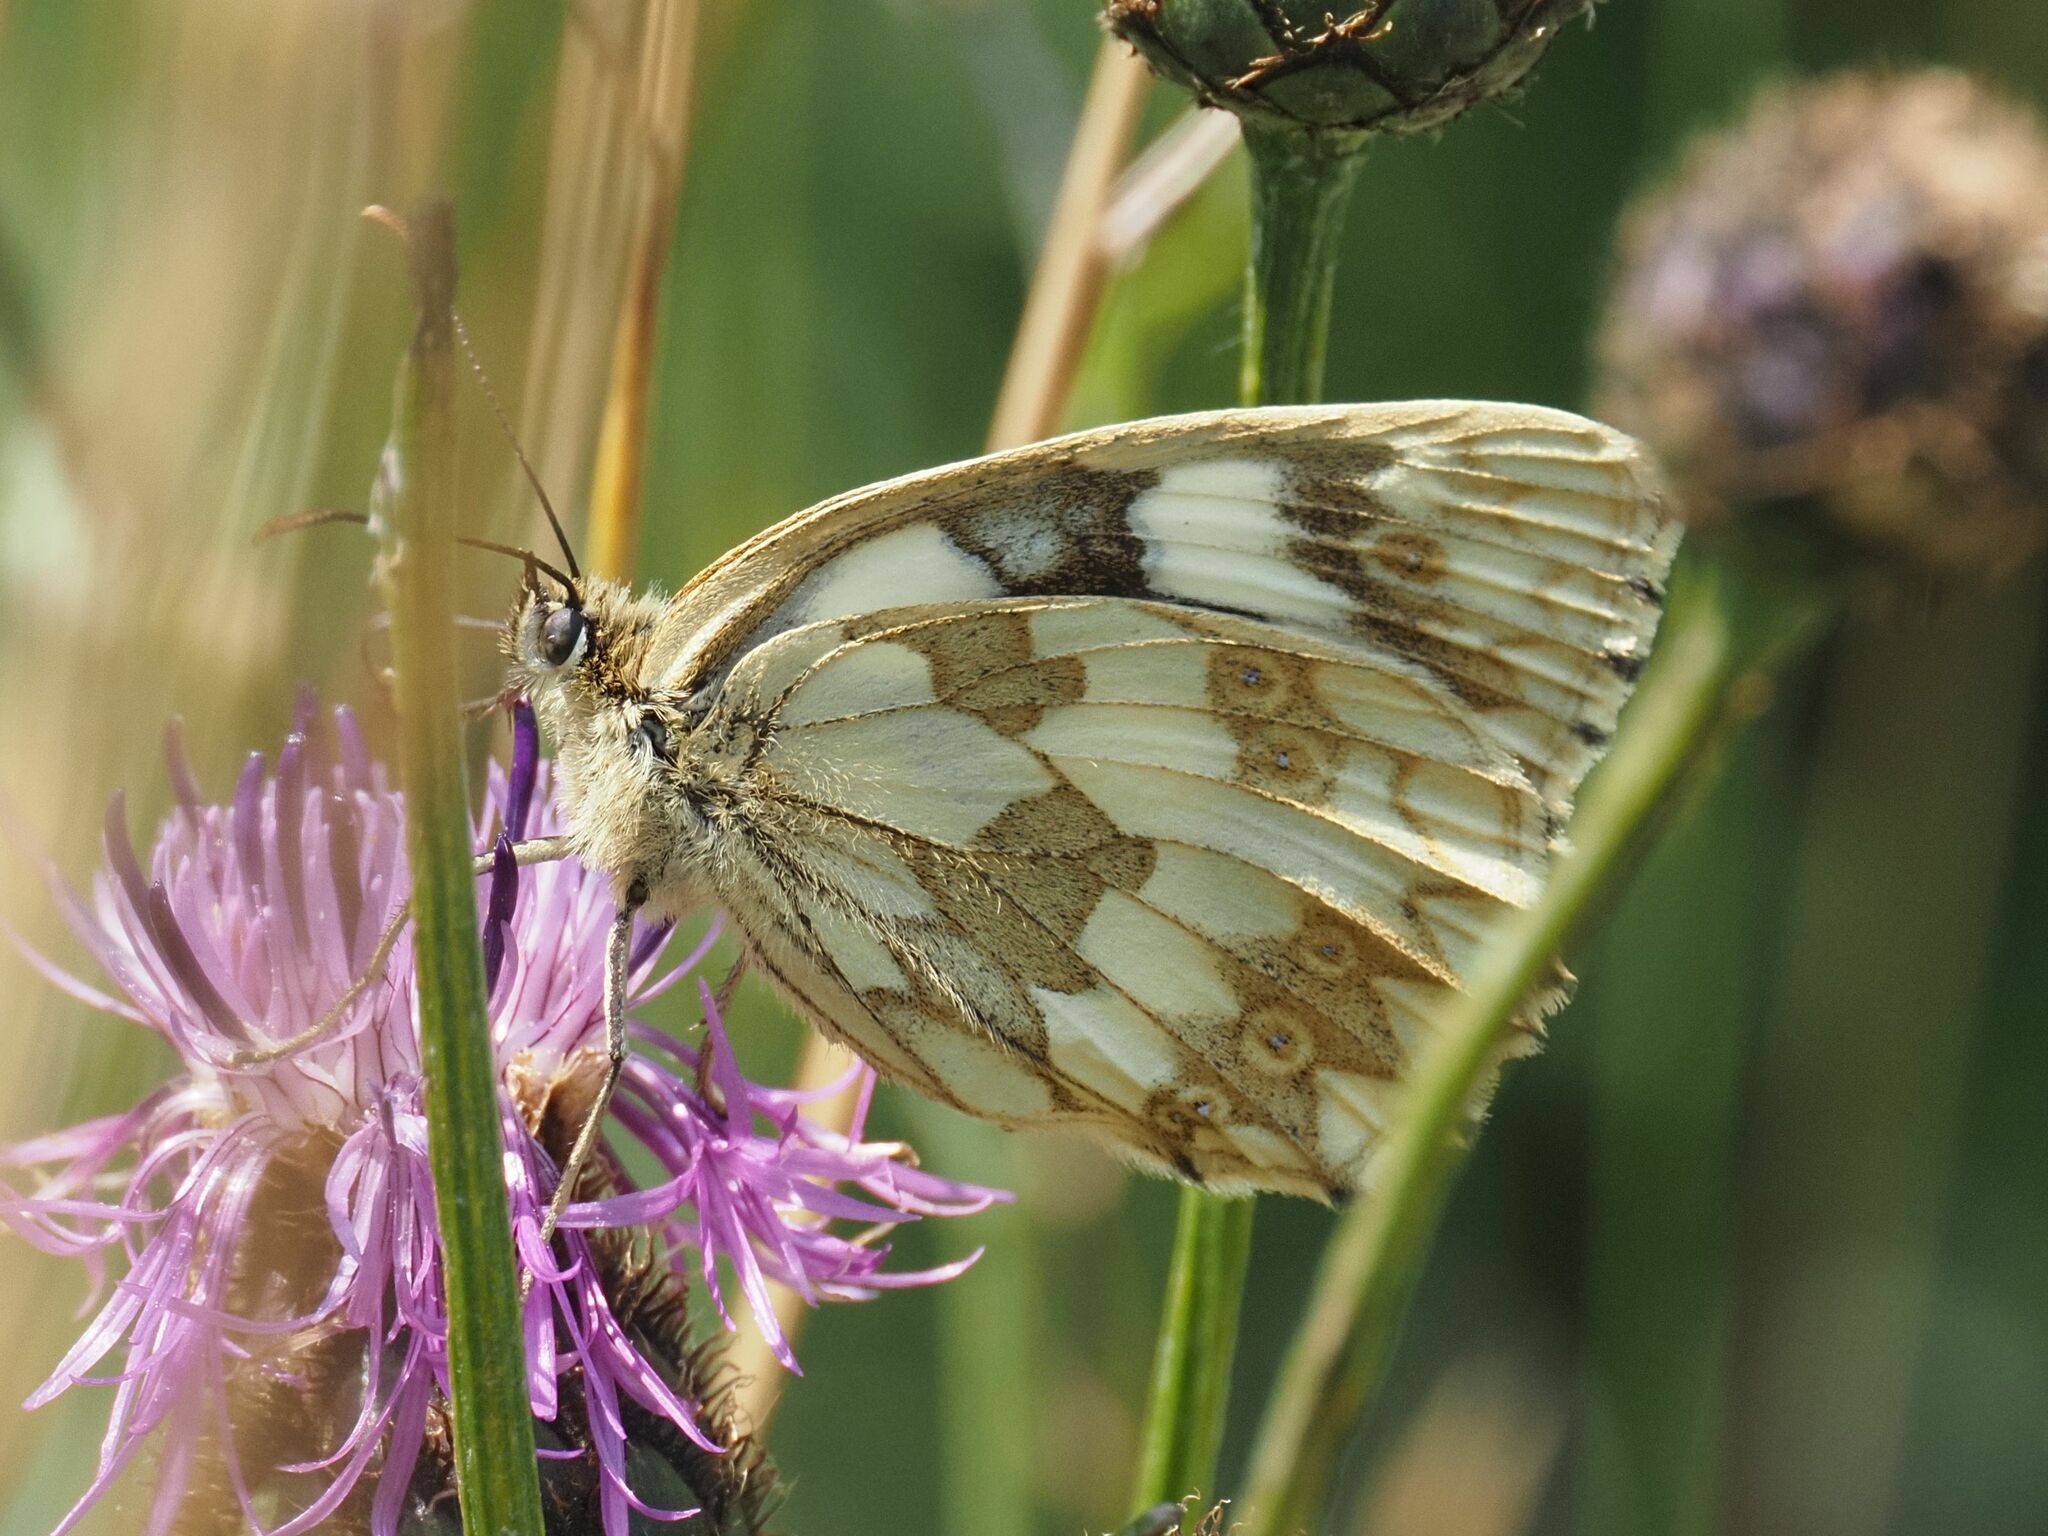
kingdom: Animalia
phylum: Arthropoda
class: Insecta
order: Lepidoptera
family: Nymphalidae
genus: Melanargia
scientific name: Melanargia galathea
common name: Marbled white
